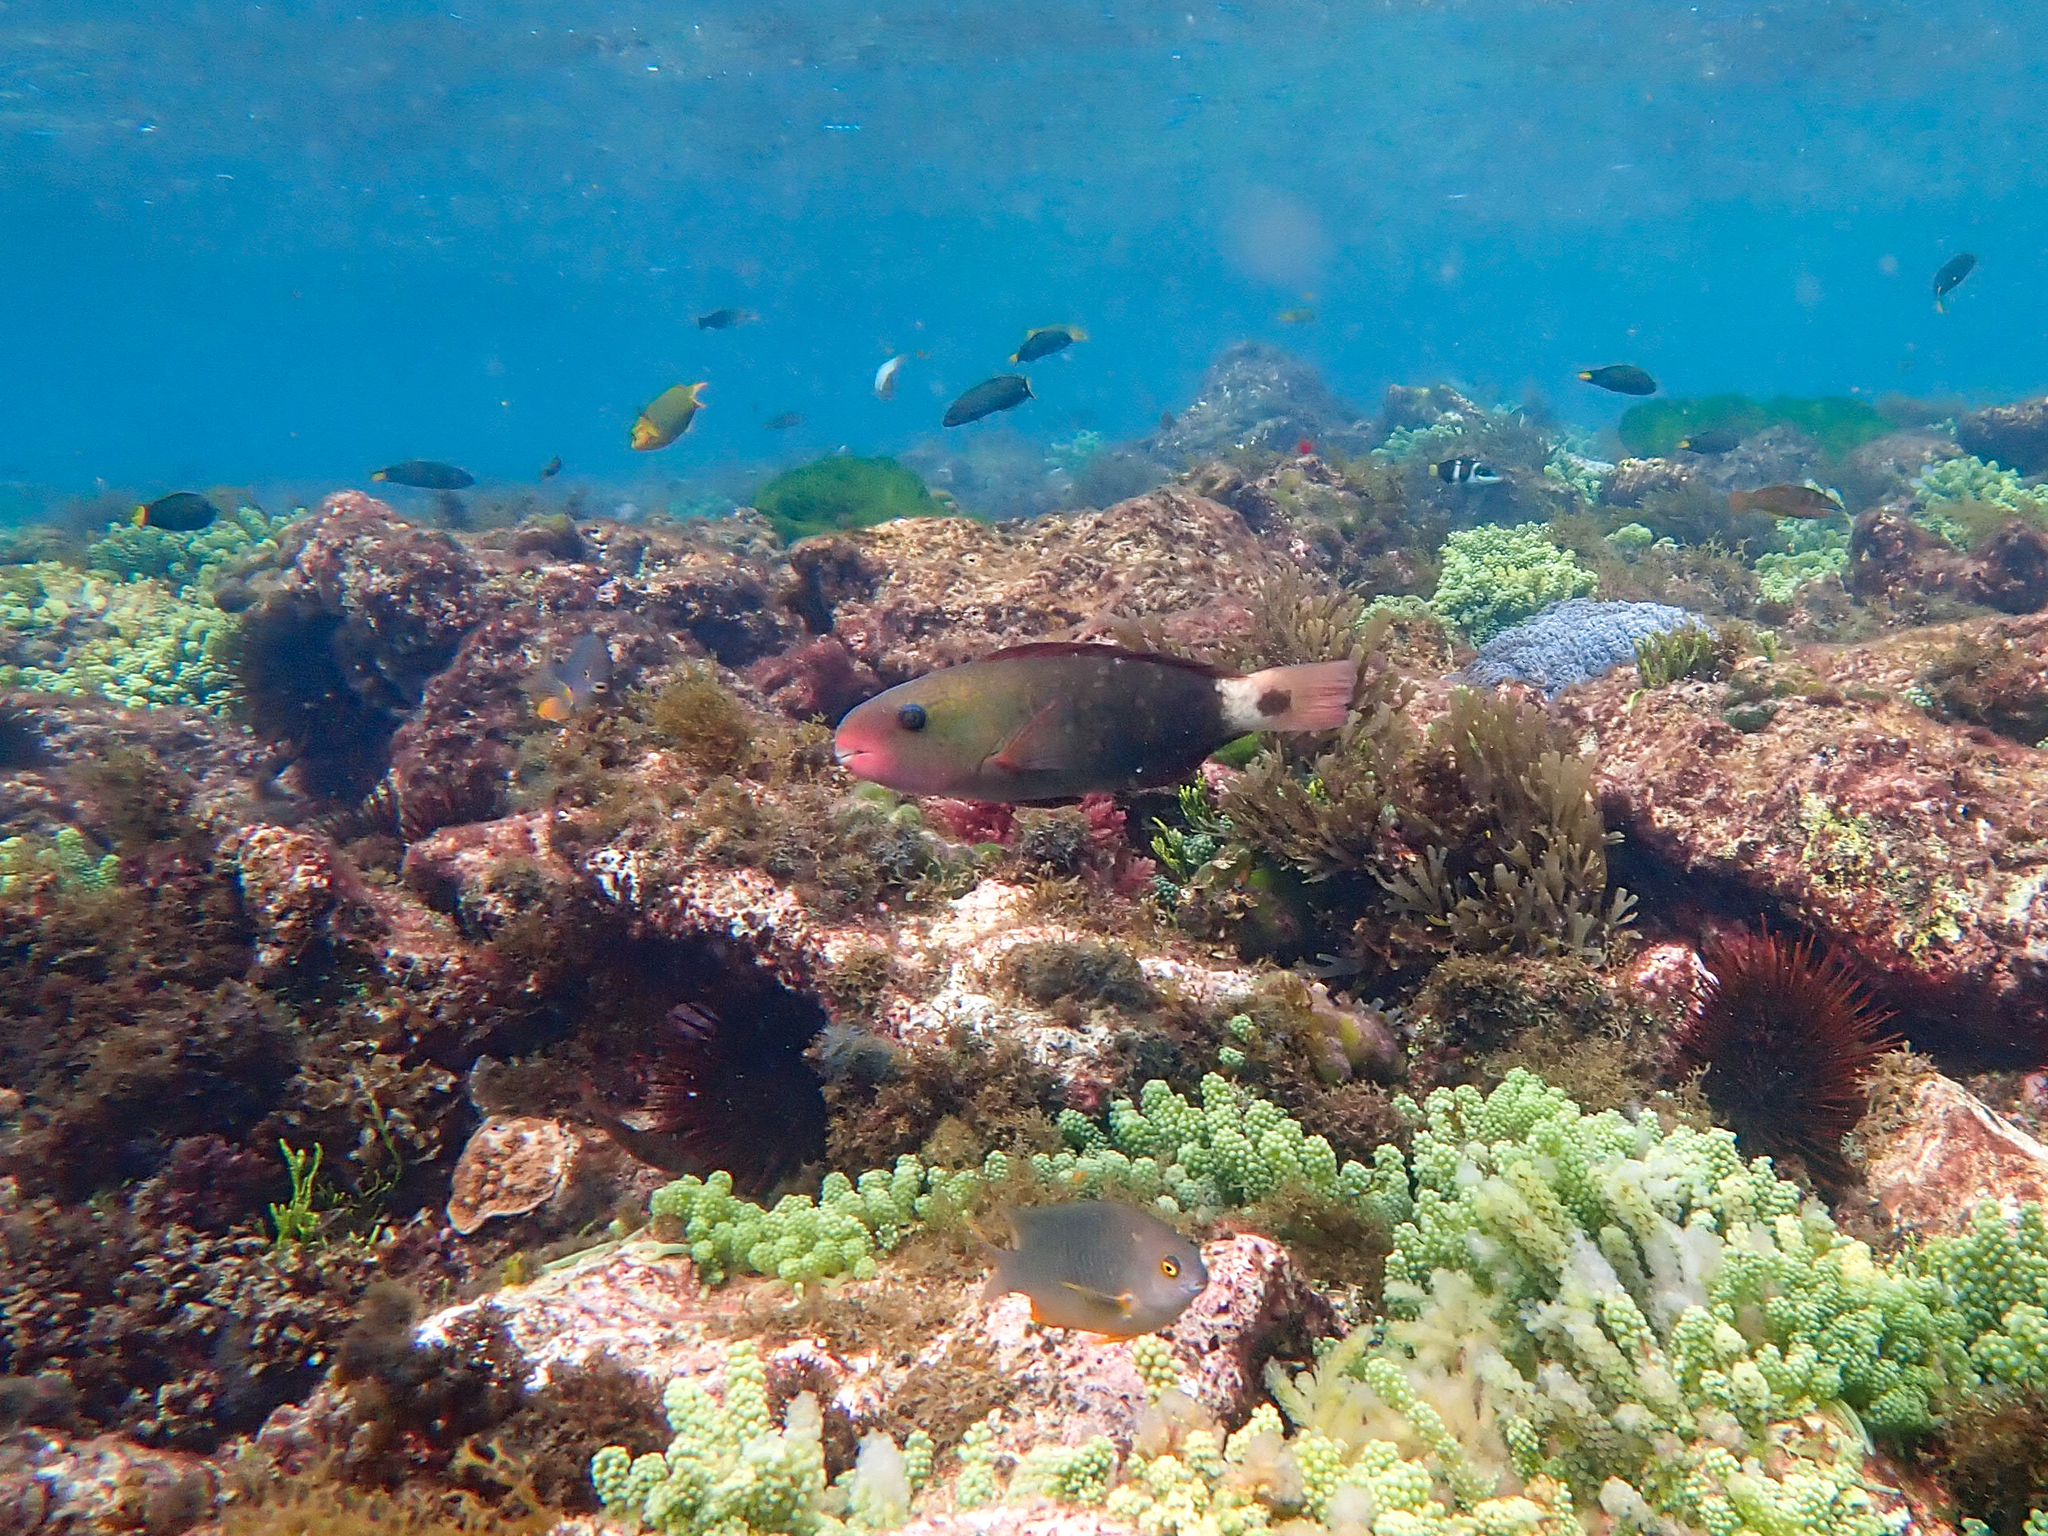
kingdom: Animalia
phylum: Chordata
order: Perciformes
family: Scaridae
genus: Chlorurus
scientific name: Chlorurus spilurus
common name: Bullethead parrotfish
